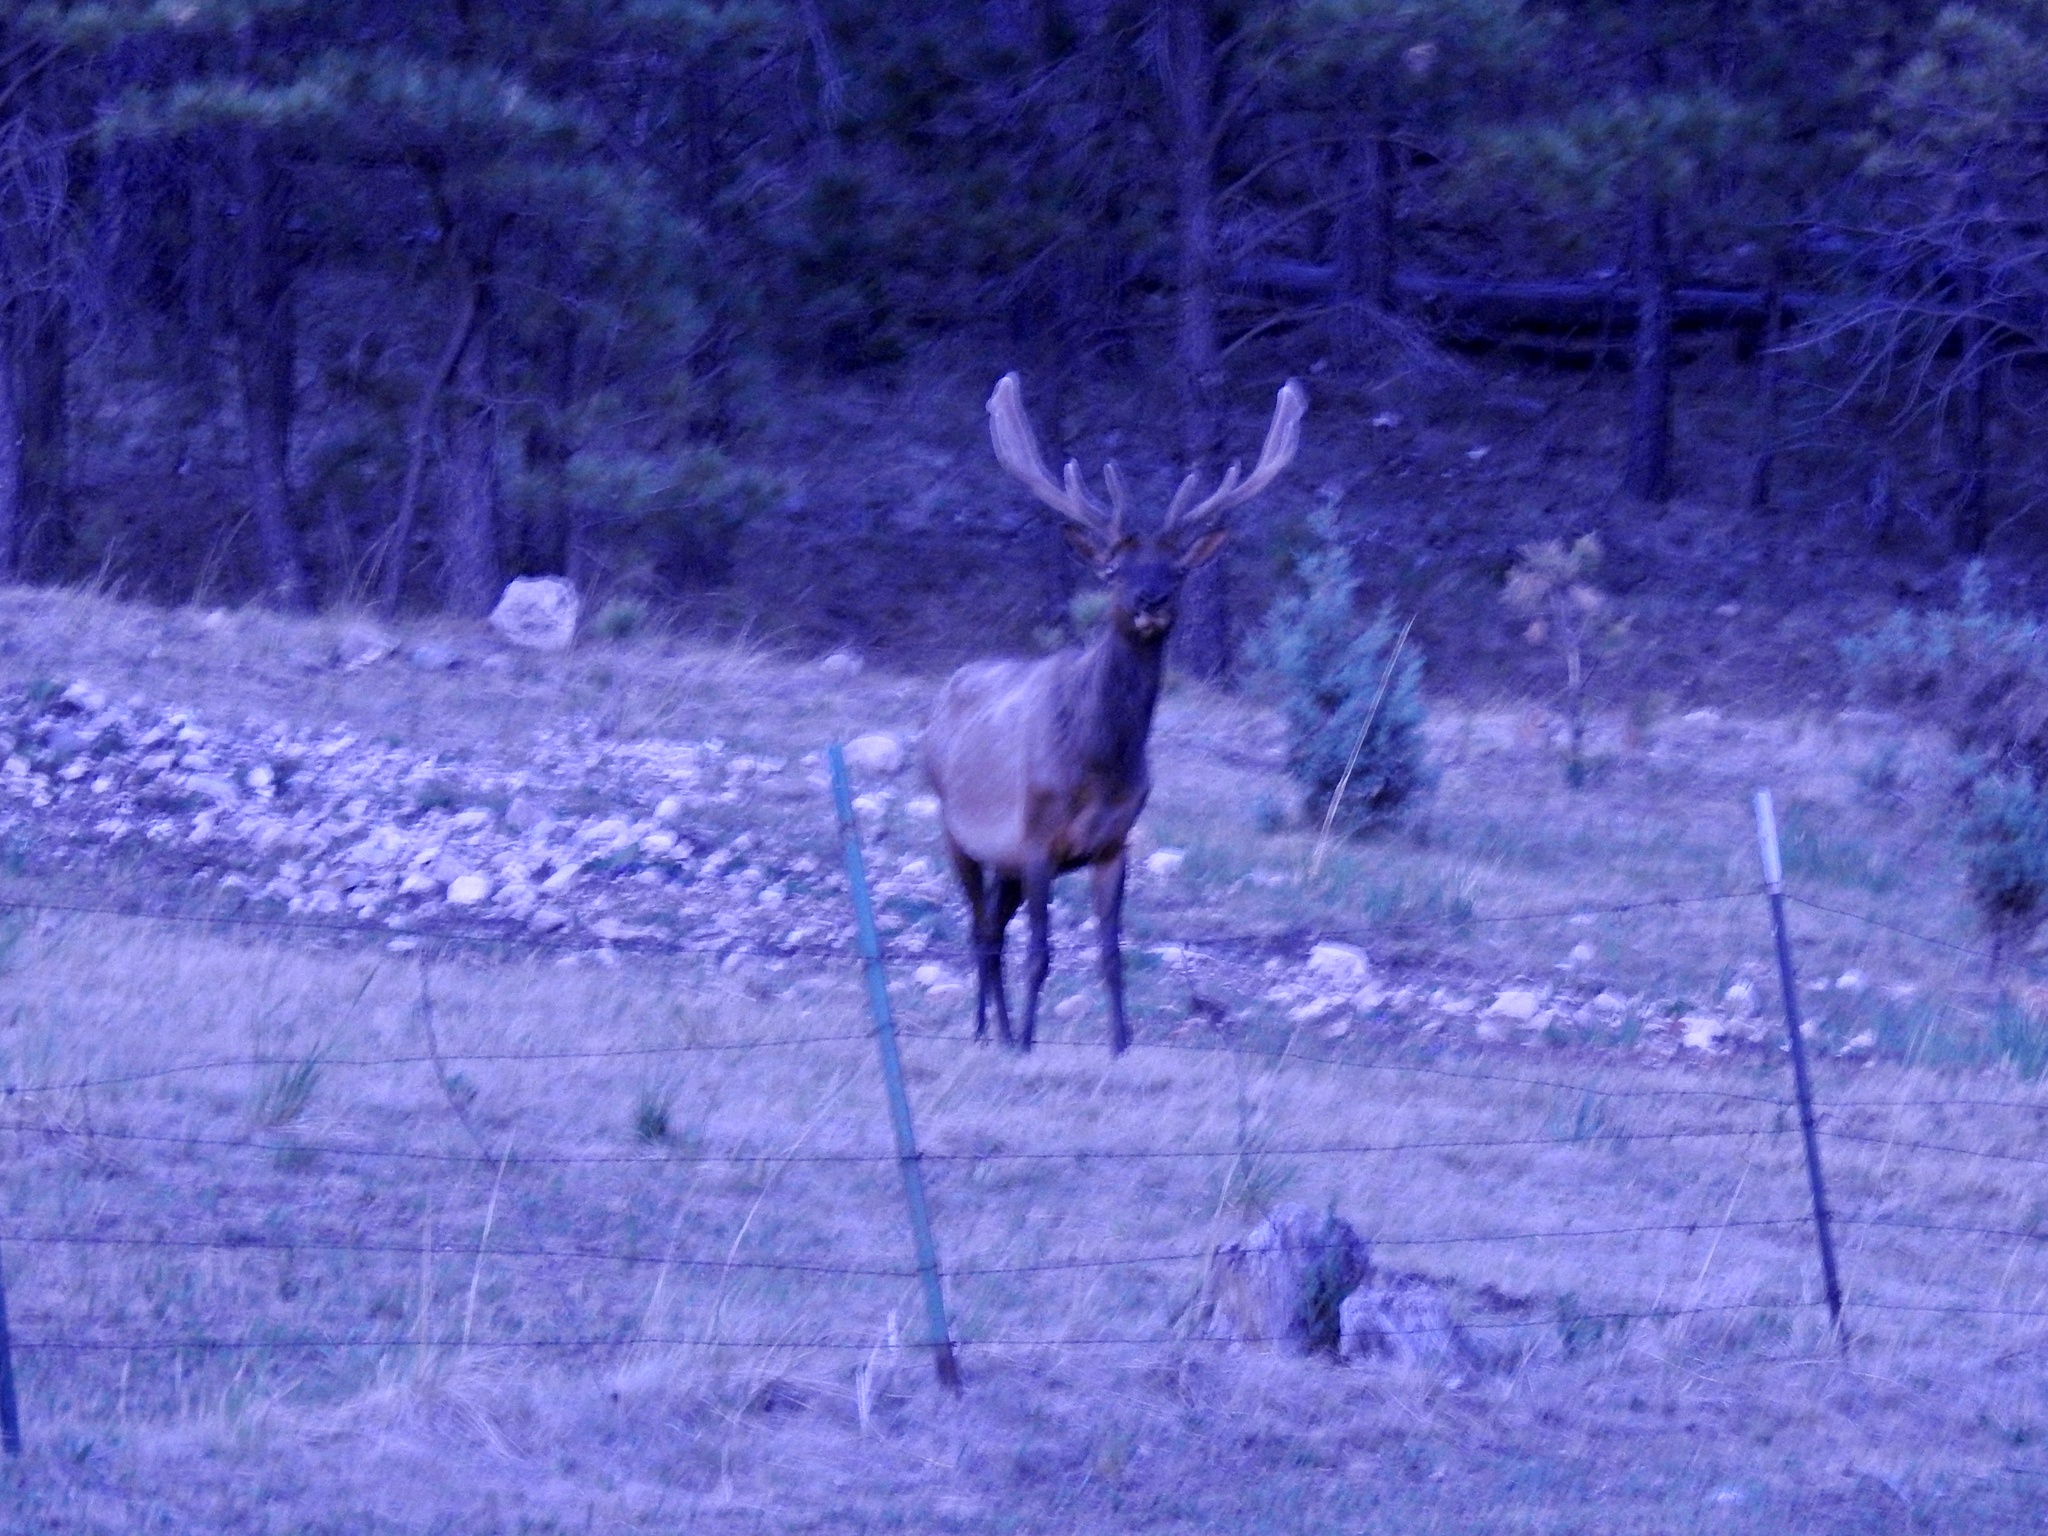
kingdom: Animalia
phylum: Chordata
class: Mammalia
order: Artiodactyla
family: Cervidae
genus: Cervus
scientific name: Cervus elaphus
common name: Red deer
